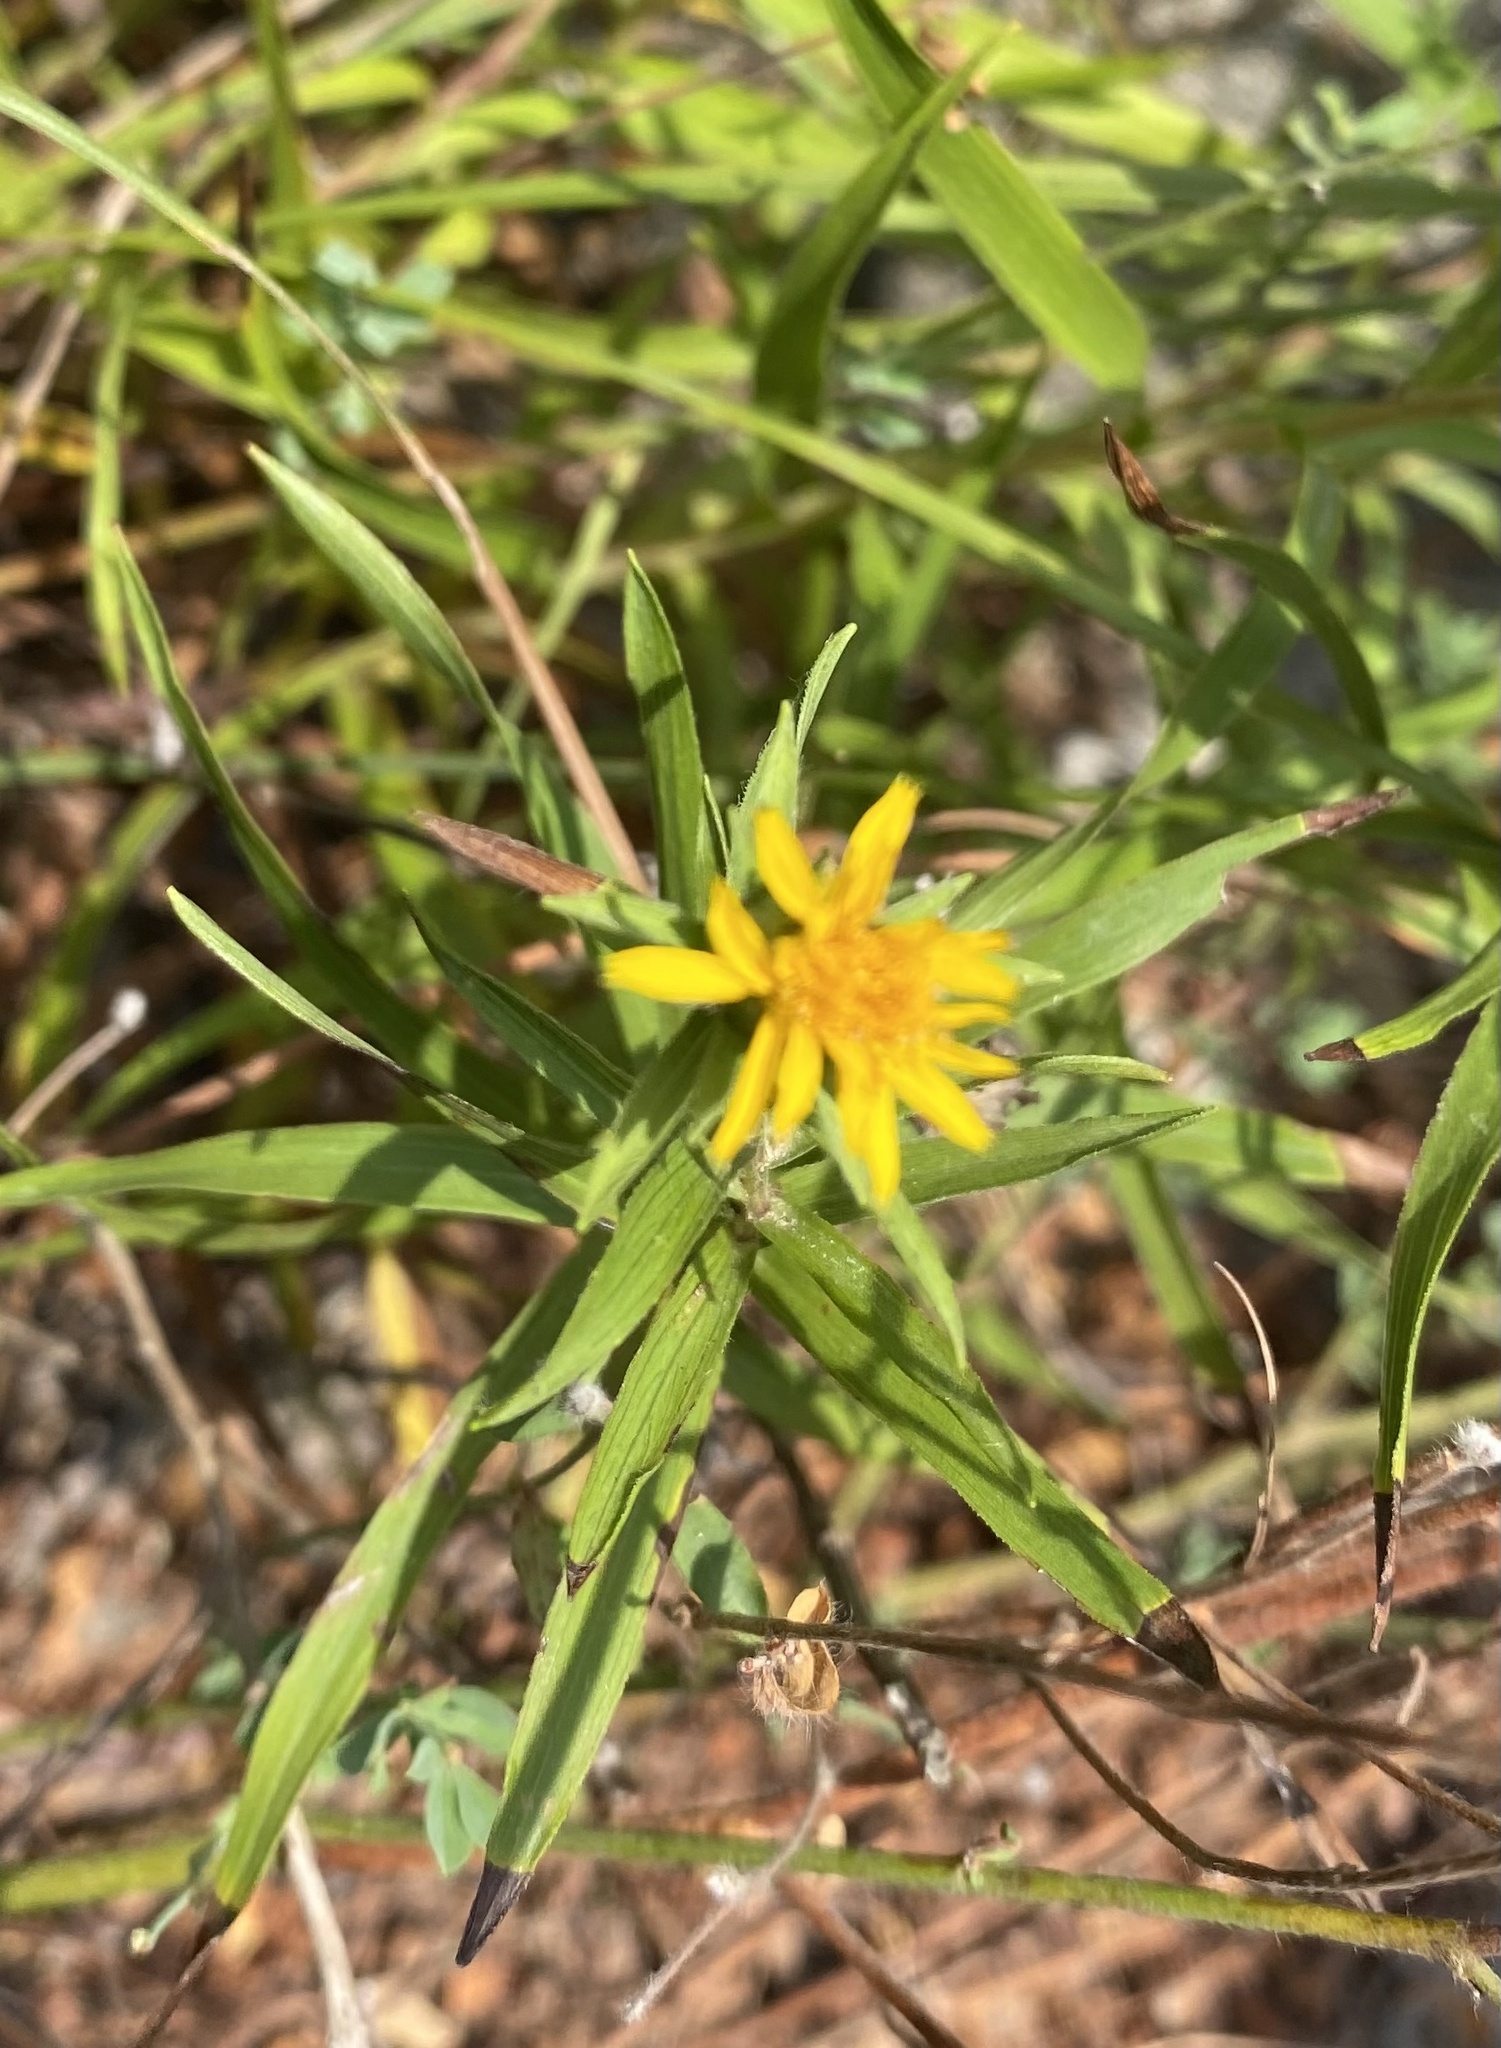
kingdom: Plantae
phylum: Tracheophyta
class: Magnoliopsida
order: Asterales
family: Asteraceae
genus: Pentanema
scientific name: Pentanema ensifolium
